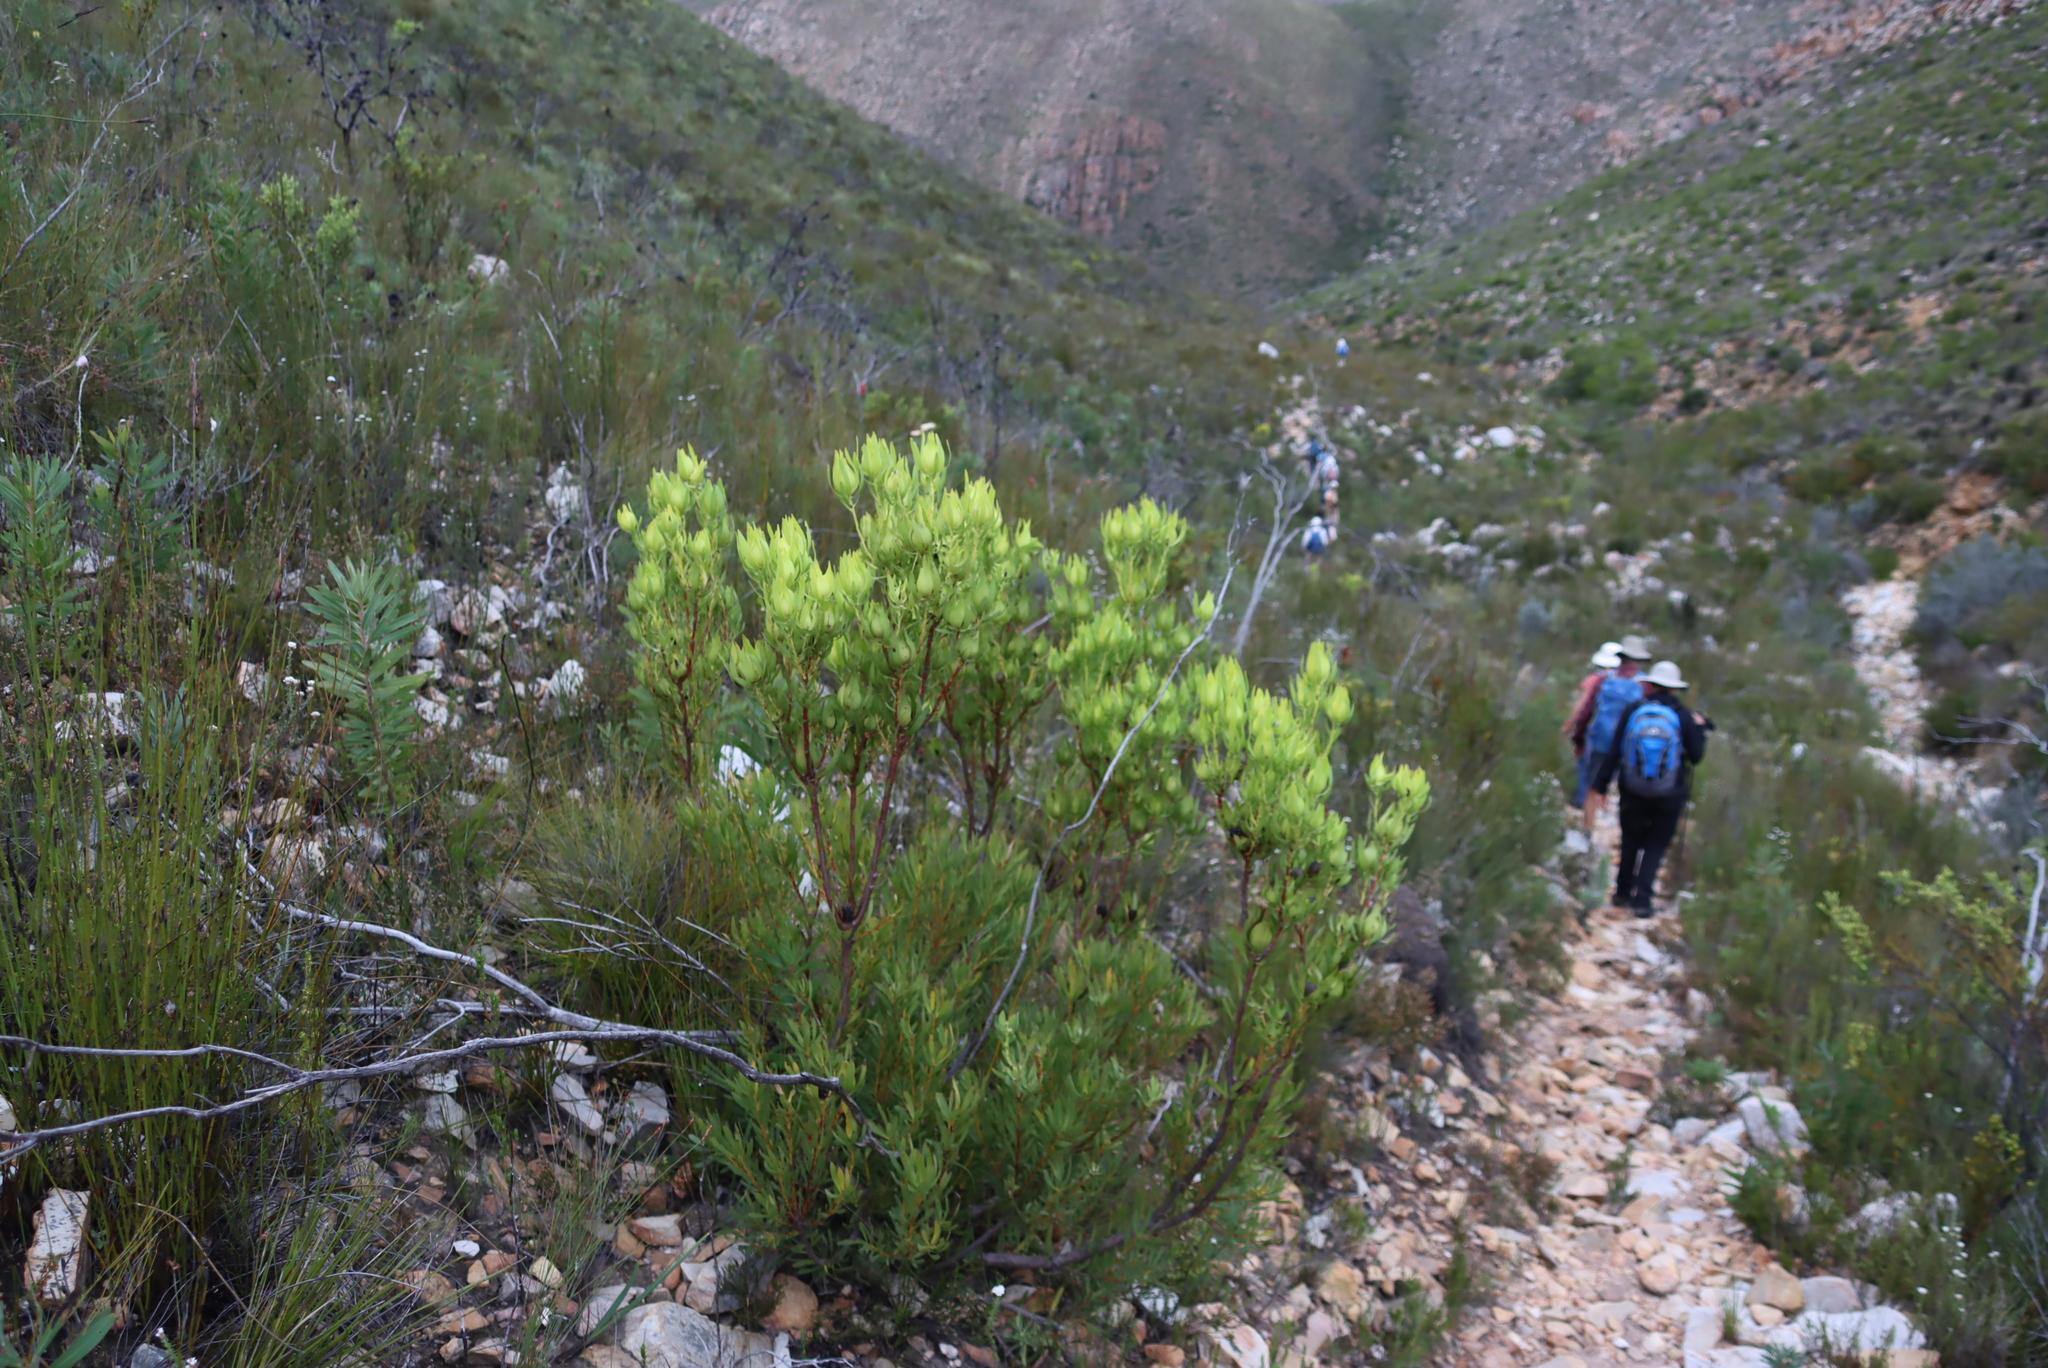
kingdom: Plantae
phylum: Tracheophyta
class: Magnoliopsida
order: Proteales
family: Proteaceae
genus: Leucadendron
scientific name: Leucadendron salignum
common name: Common sunshine conebush
